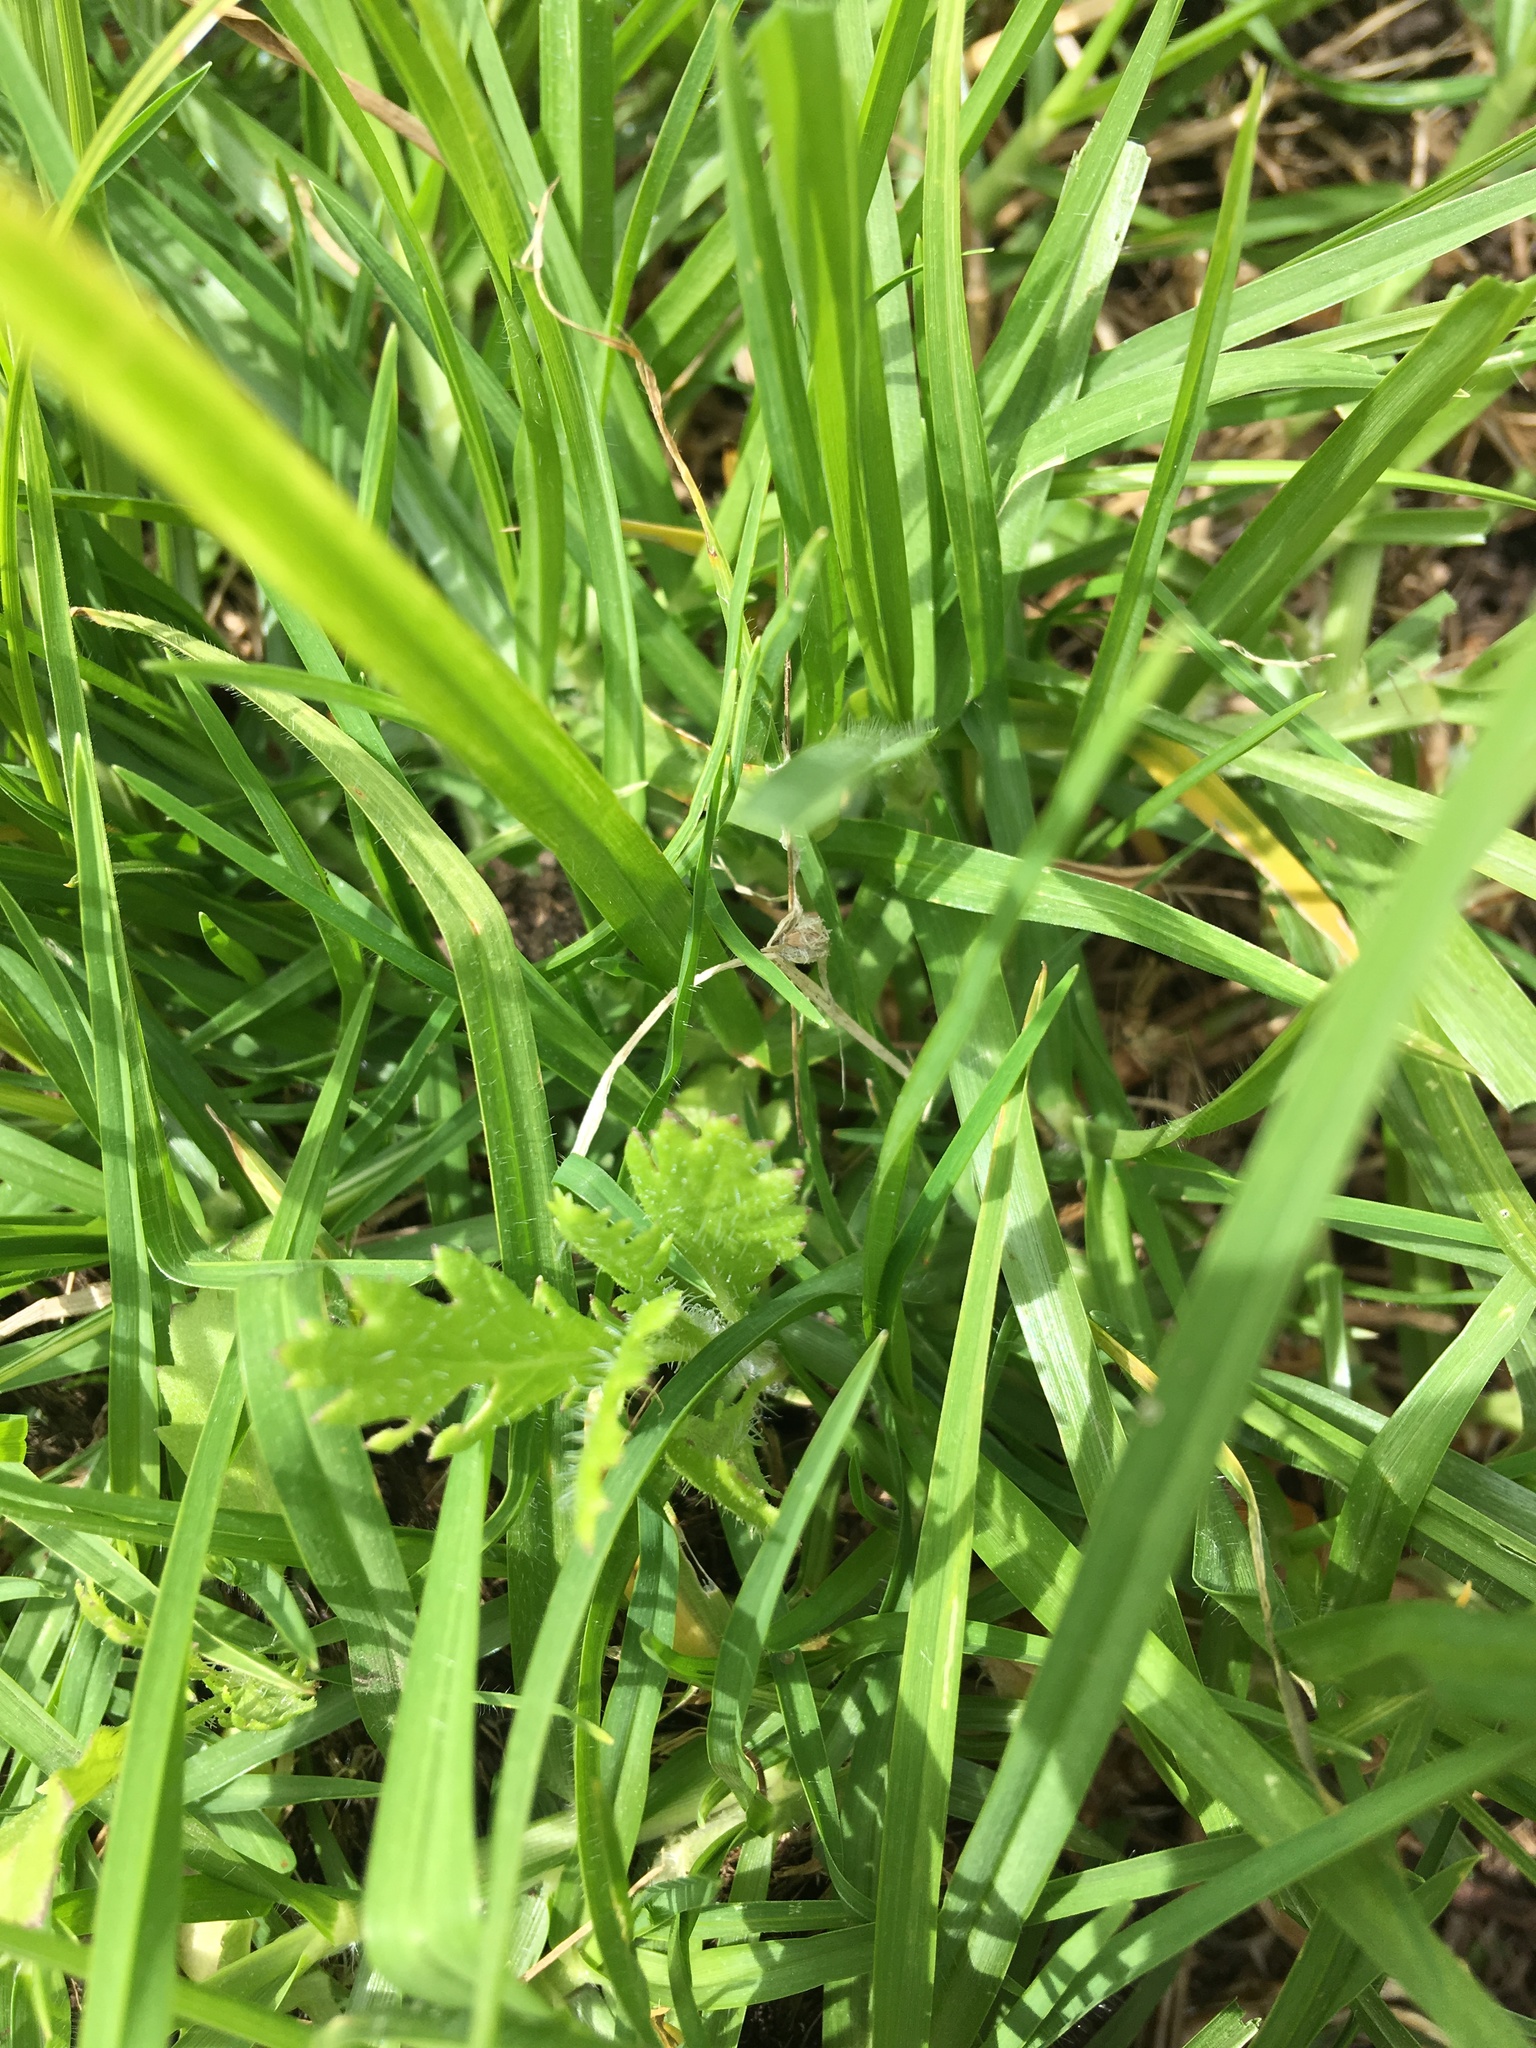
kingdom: Plantae
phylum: Tracheophyta
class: Magnoliopsida
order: Asterales
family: Asteraceae
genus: Senecio
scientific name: Senecio esleri
